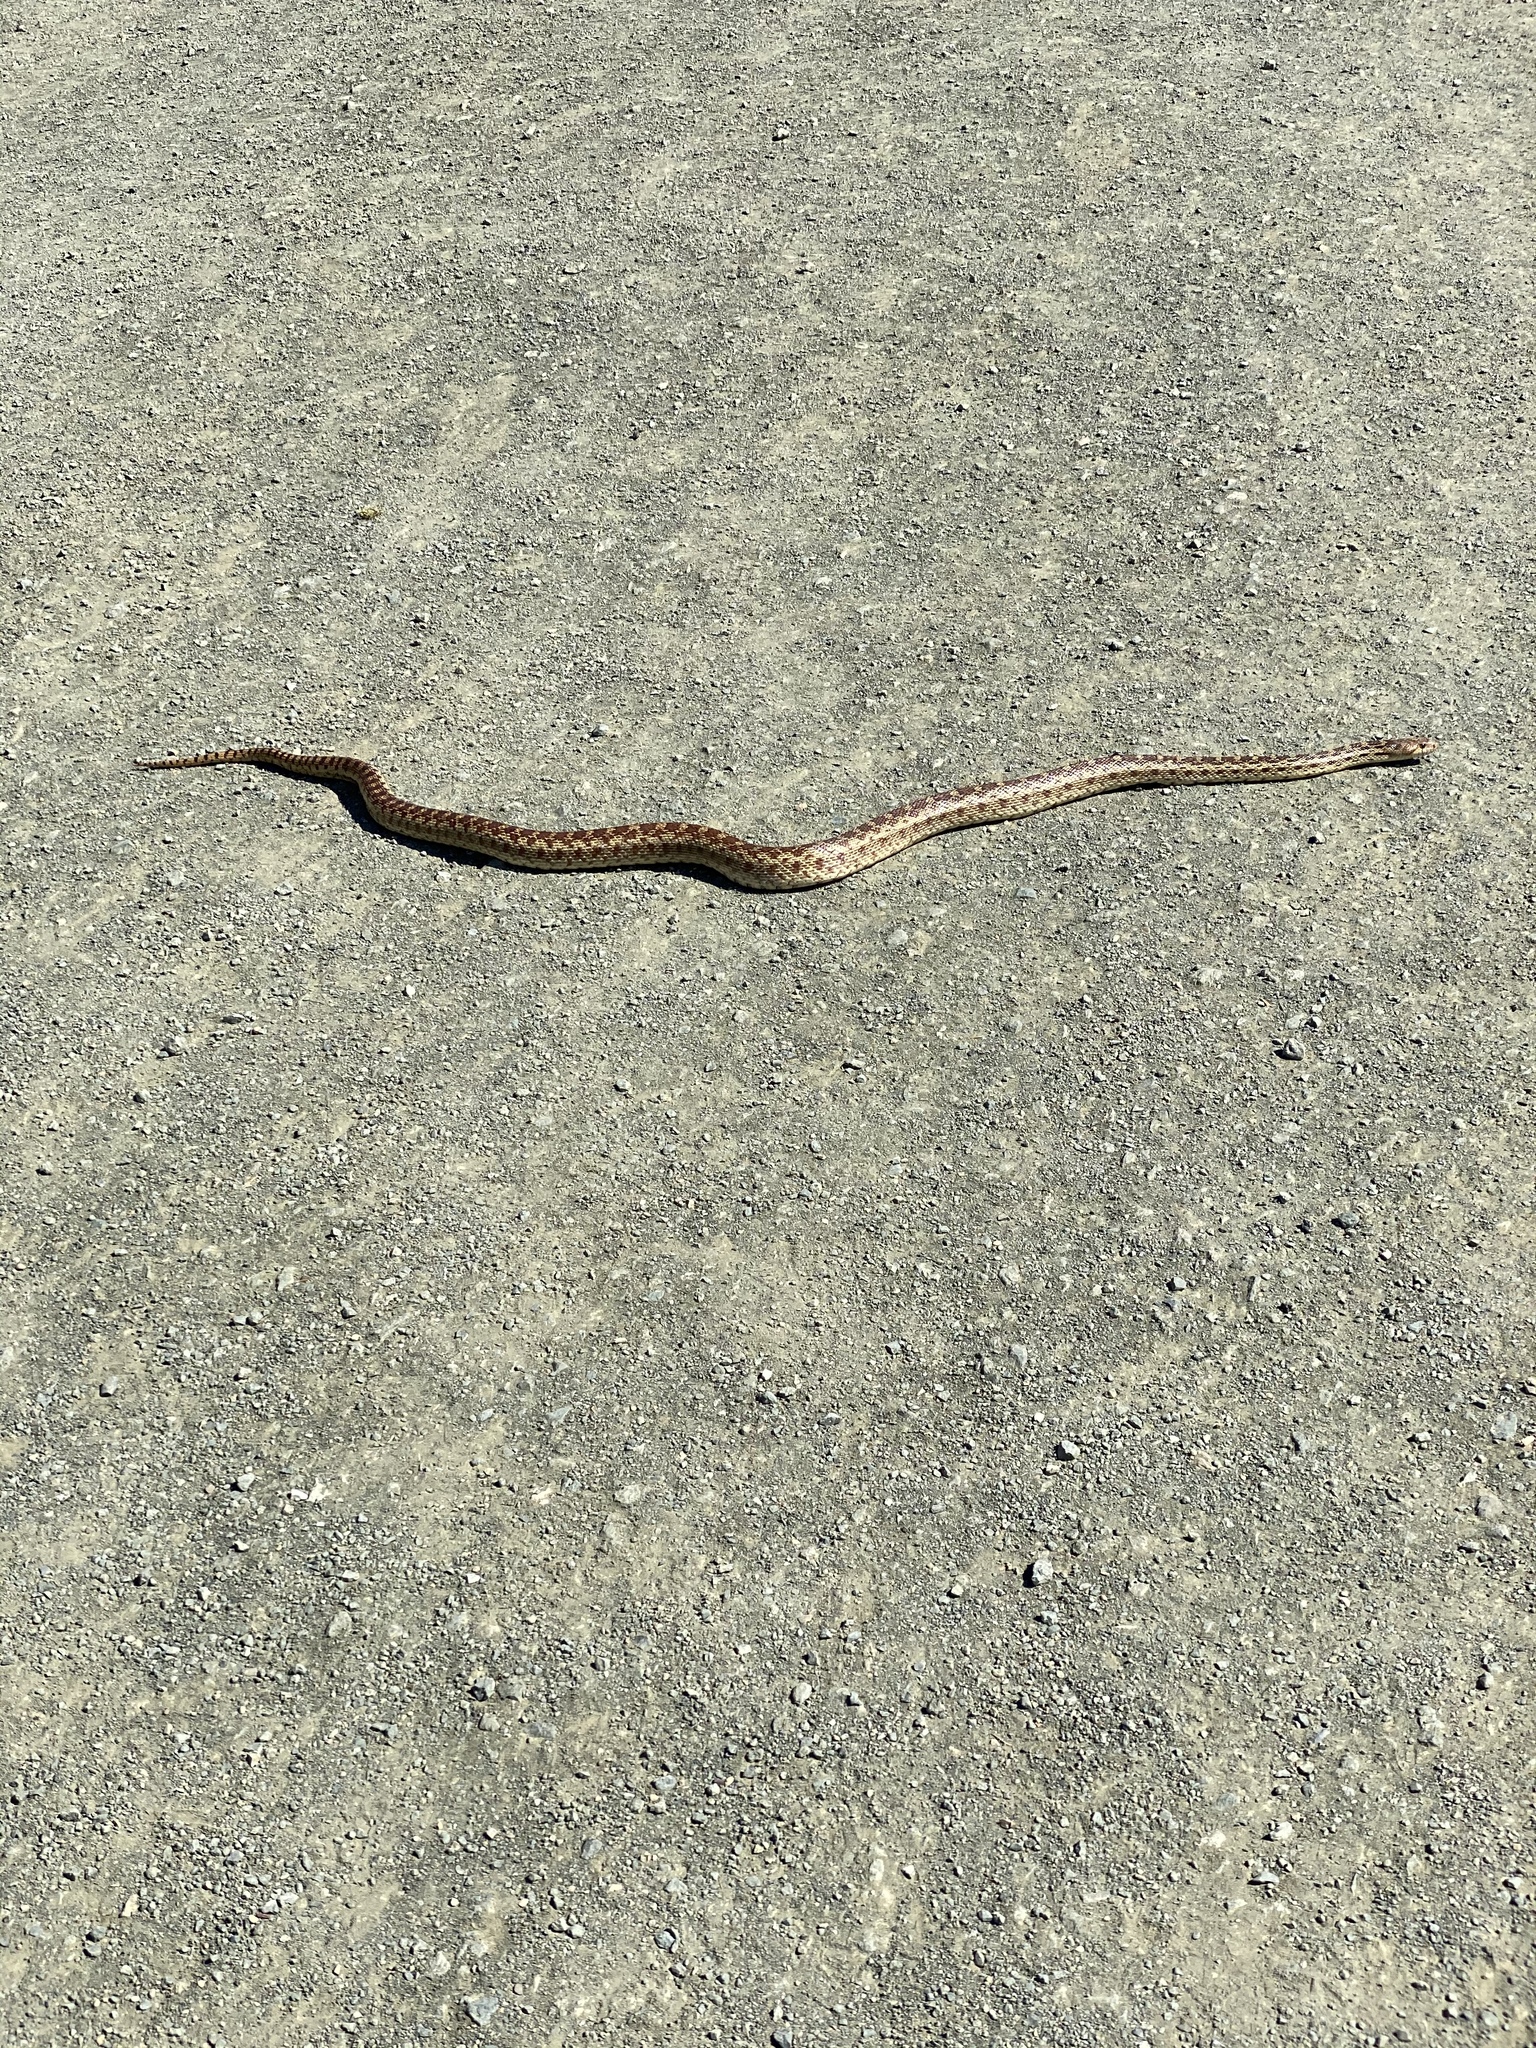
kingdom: Animalia
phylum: Chordata
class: Squamata
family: Colubridae
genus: Pituophis
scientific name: Pituophis catenifer
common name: Gopher snake
